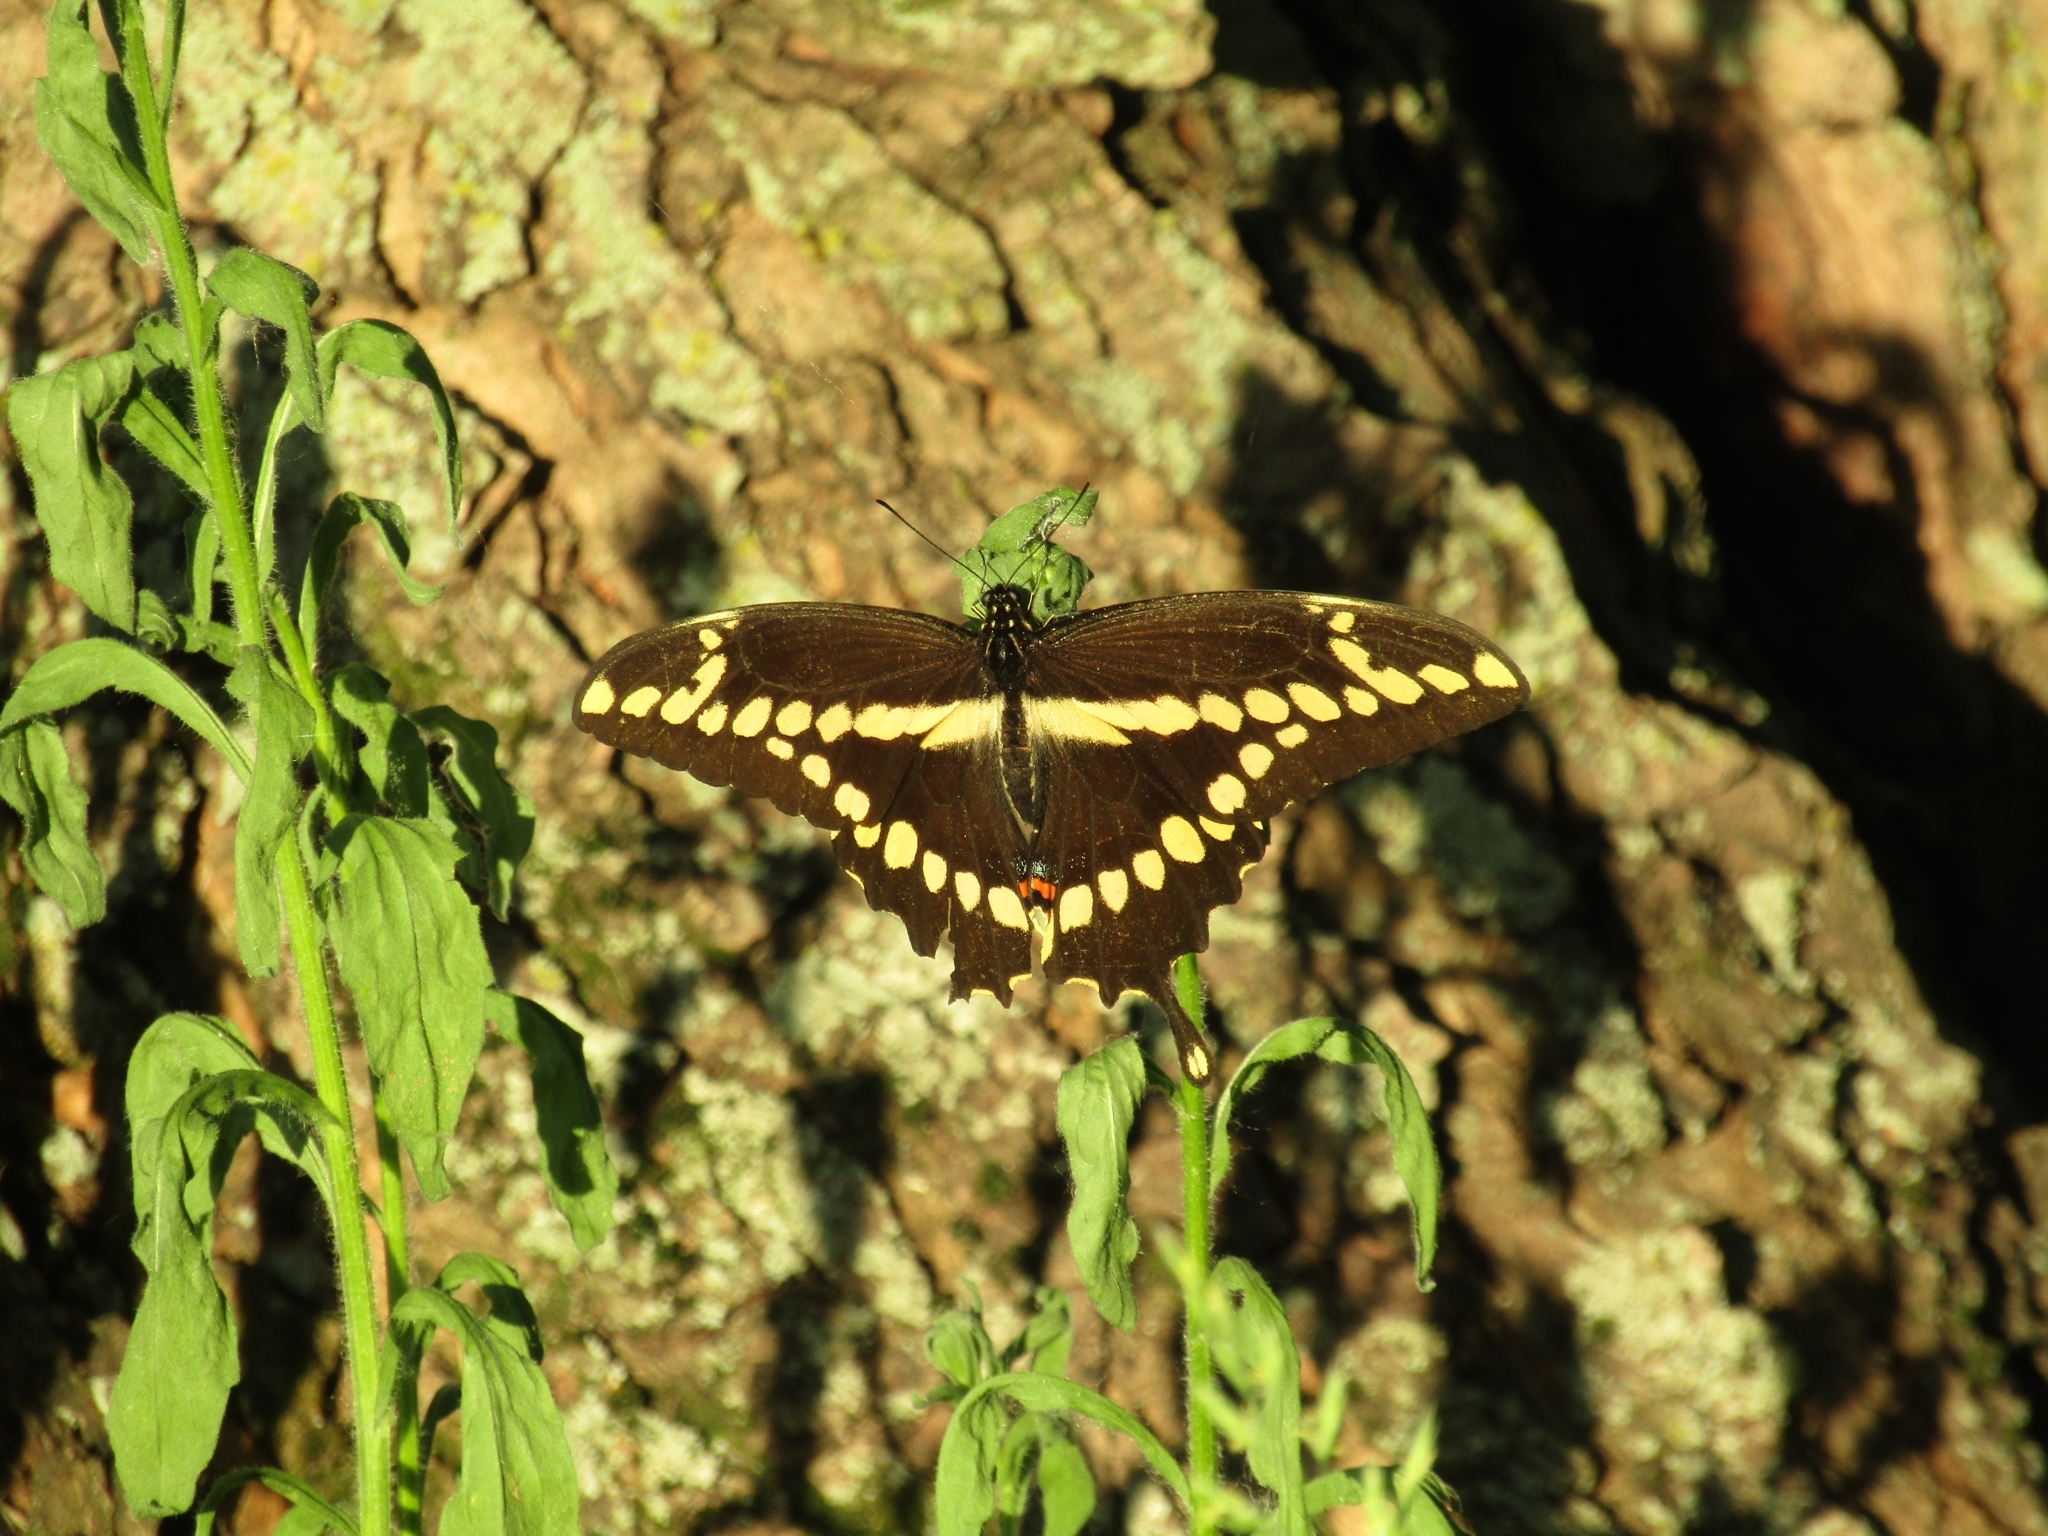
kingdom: Animalia
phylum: Arthropoda
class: Insecta
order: Lepidoptera
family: Papilionidae
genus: Papilio
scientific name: Papilio cresphontes
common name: Giant swallowtail
